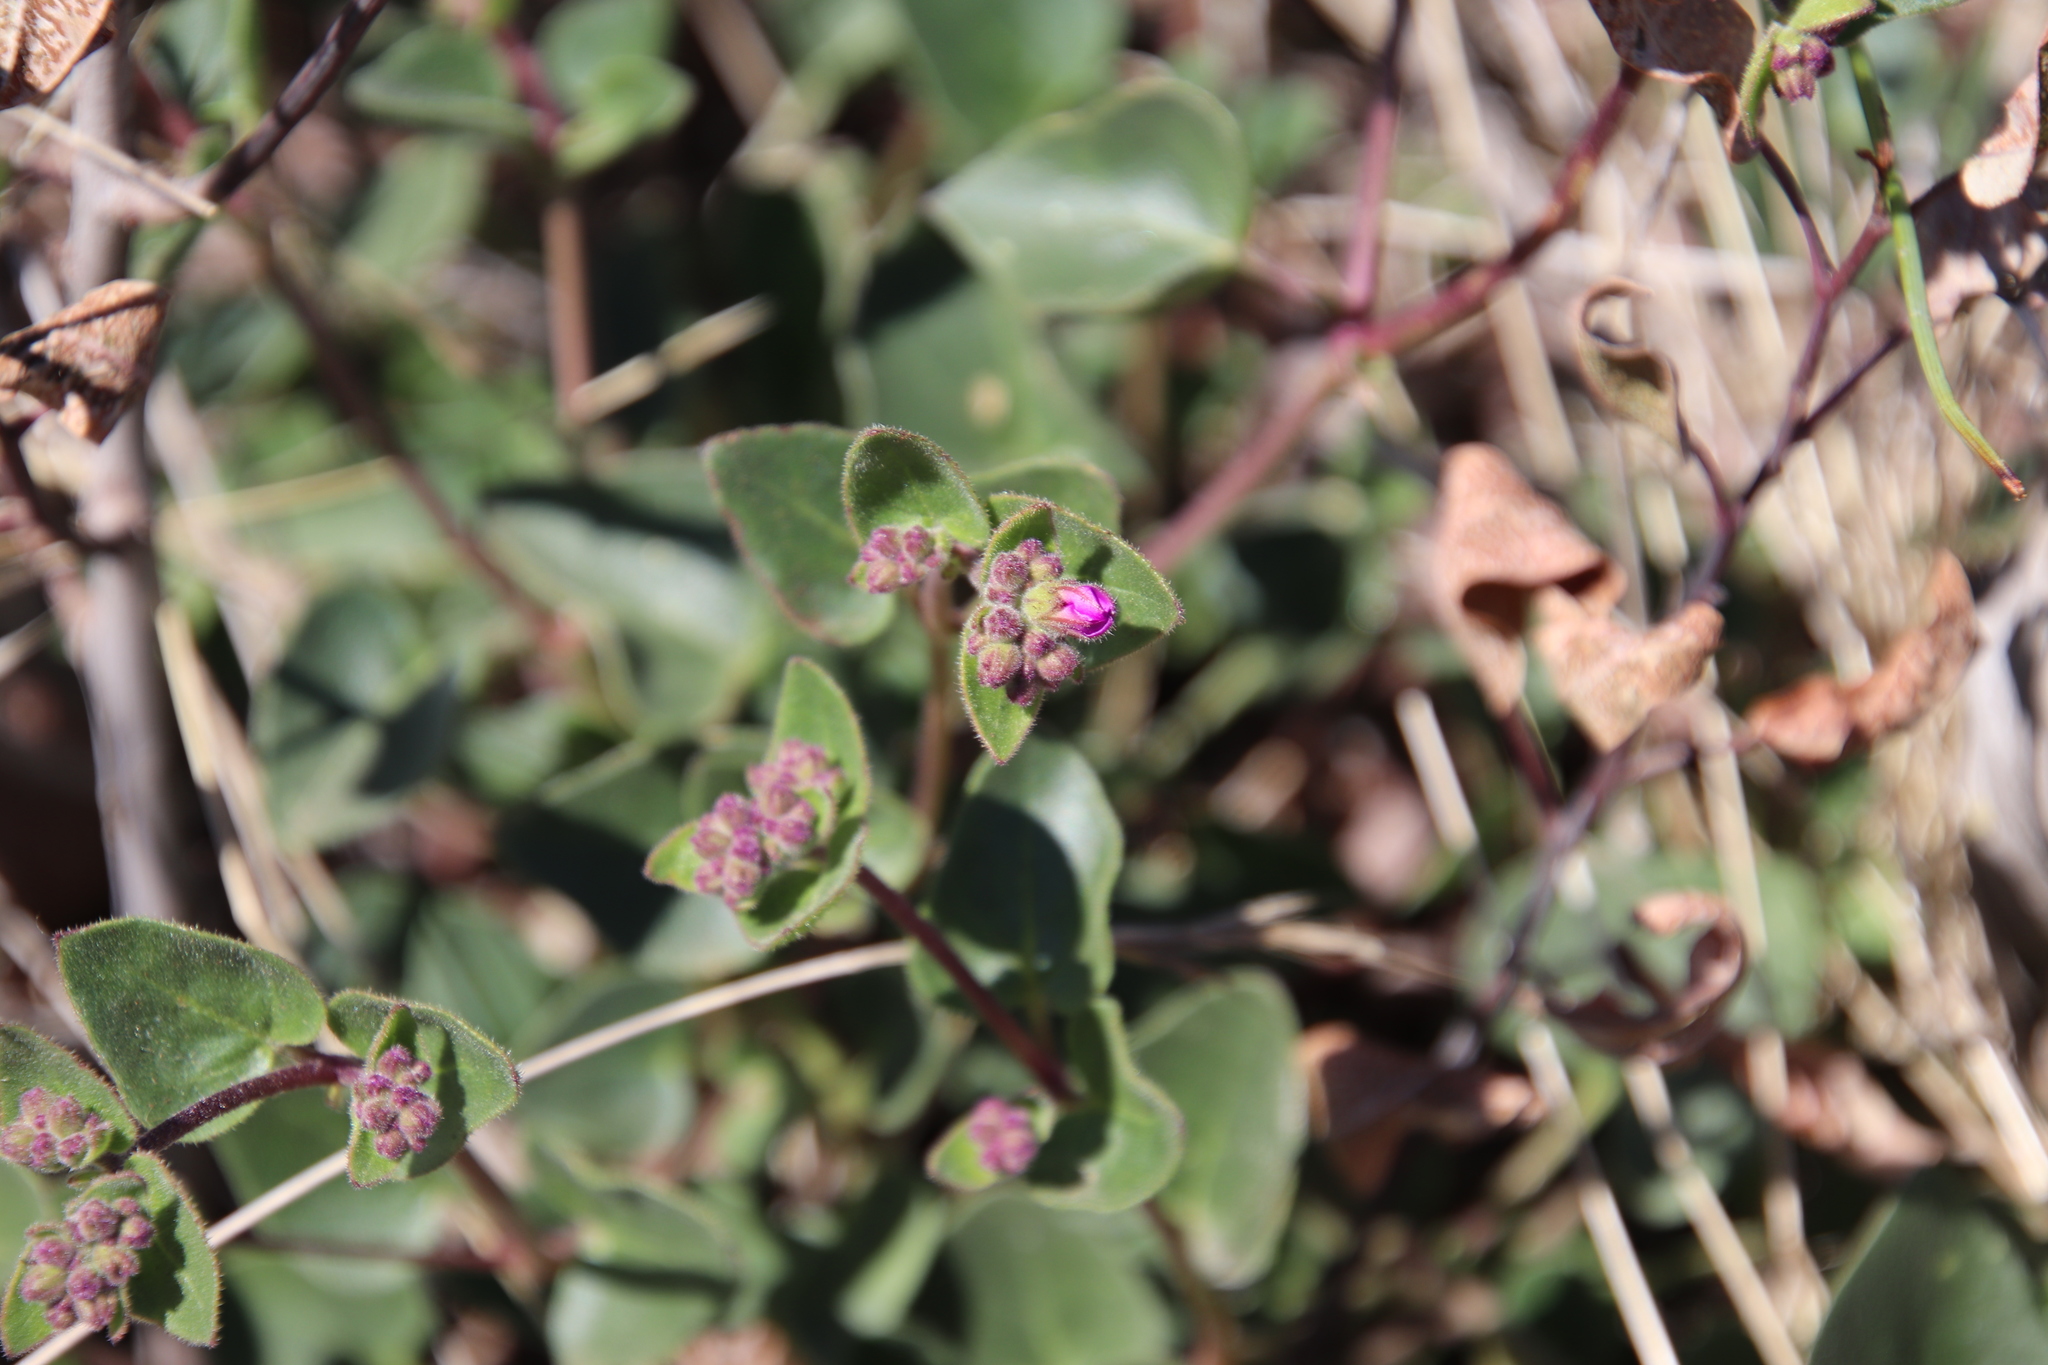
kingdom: Plantae
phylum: Tracheophyta
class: Magnoliopsida
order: Caryophyllales
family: Nyctaginaceae
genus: Mirabilis
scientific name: Mirabilis laevis
